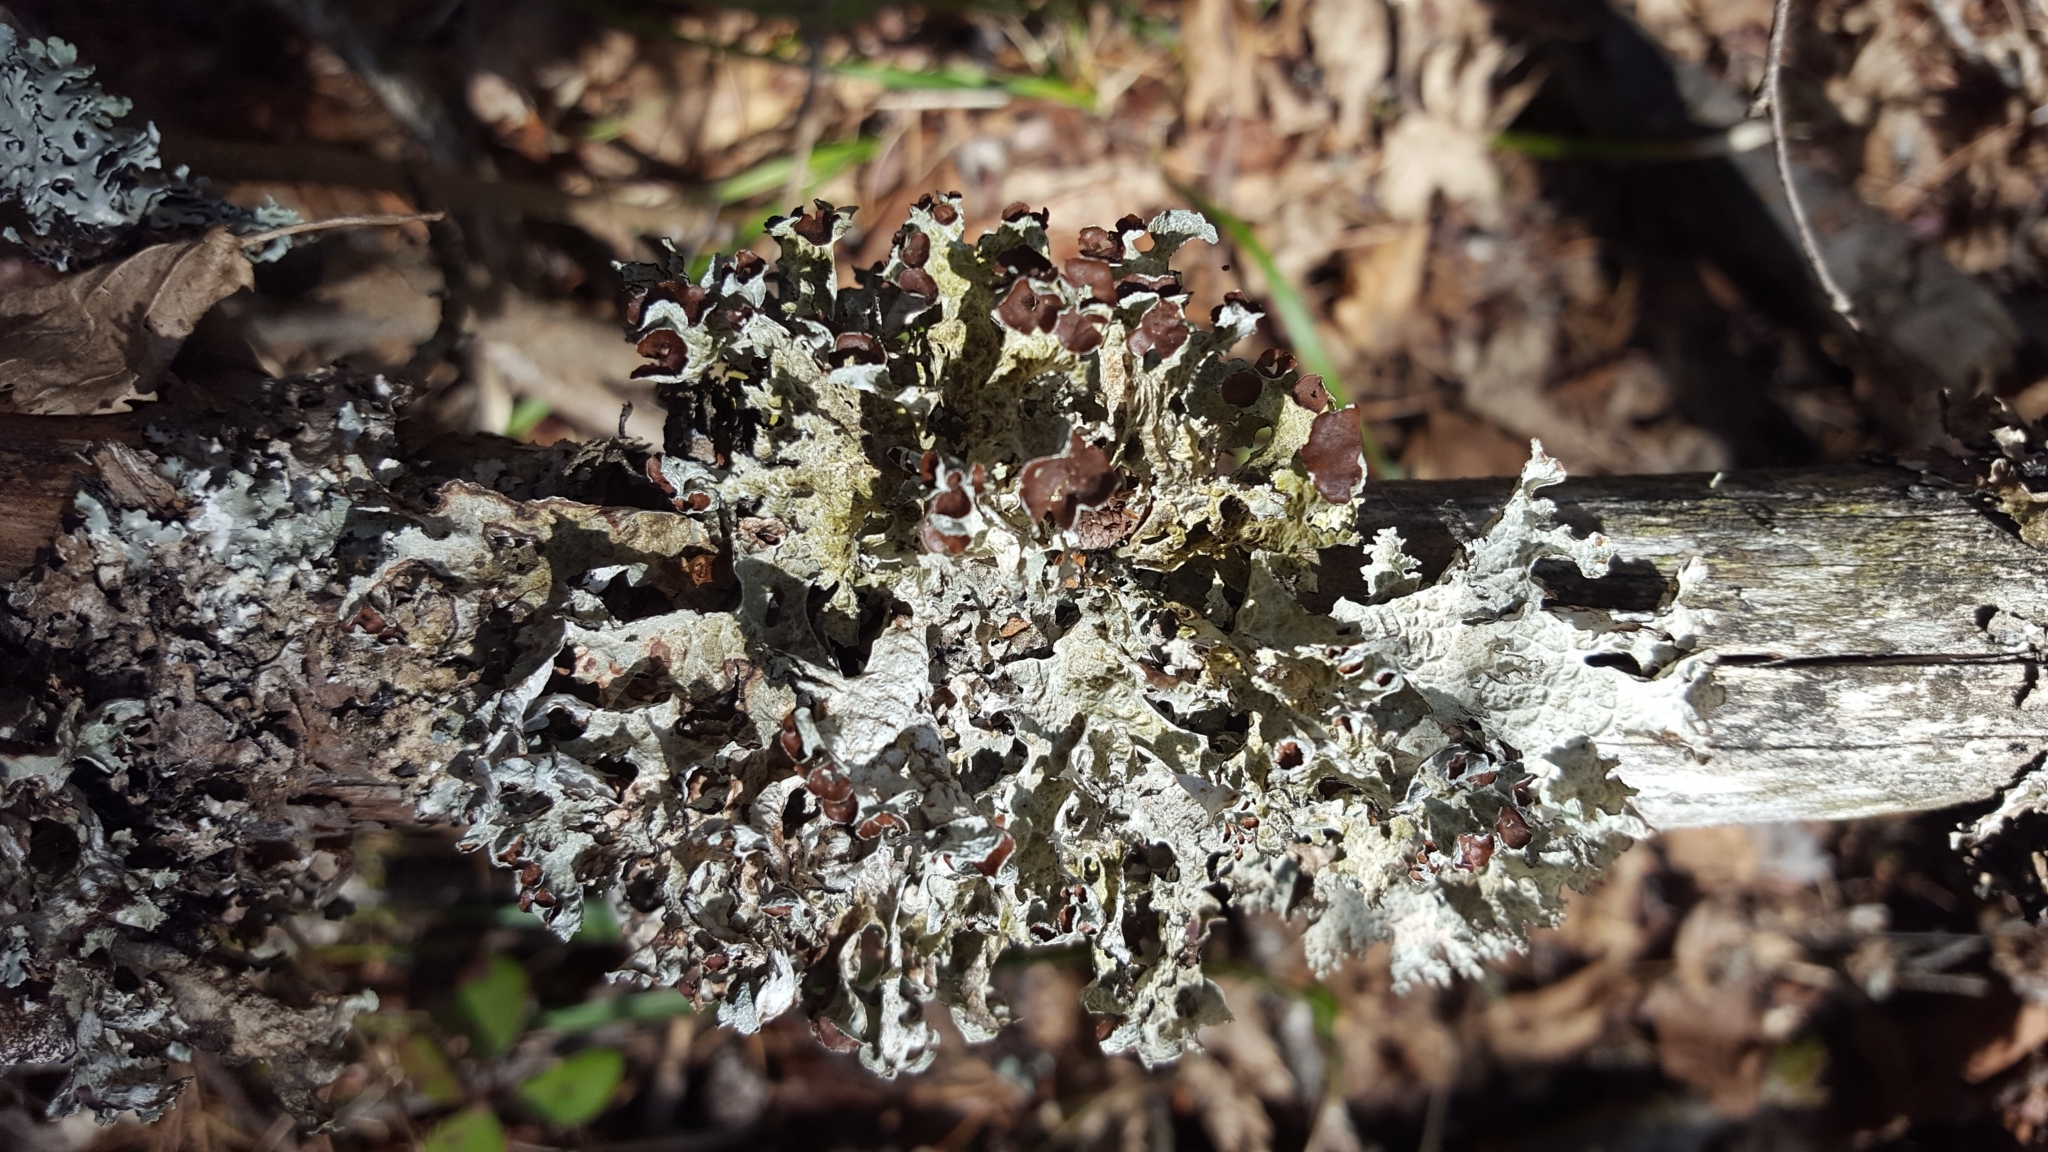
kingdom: Fungi
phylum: Ascomycota
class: Lecanoromycetes
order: Lecanorales
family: Parmeliaceae
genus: Platismatia
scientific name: Platismatia tuckermanii
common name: Crumpled rag lichen
